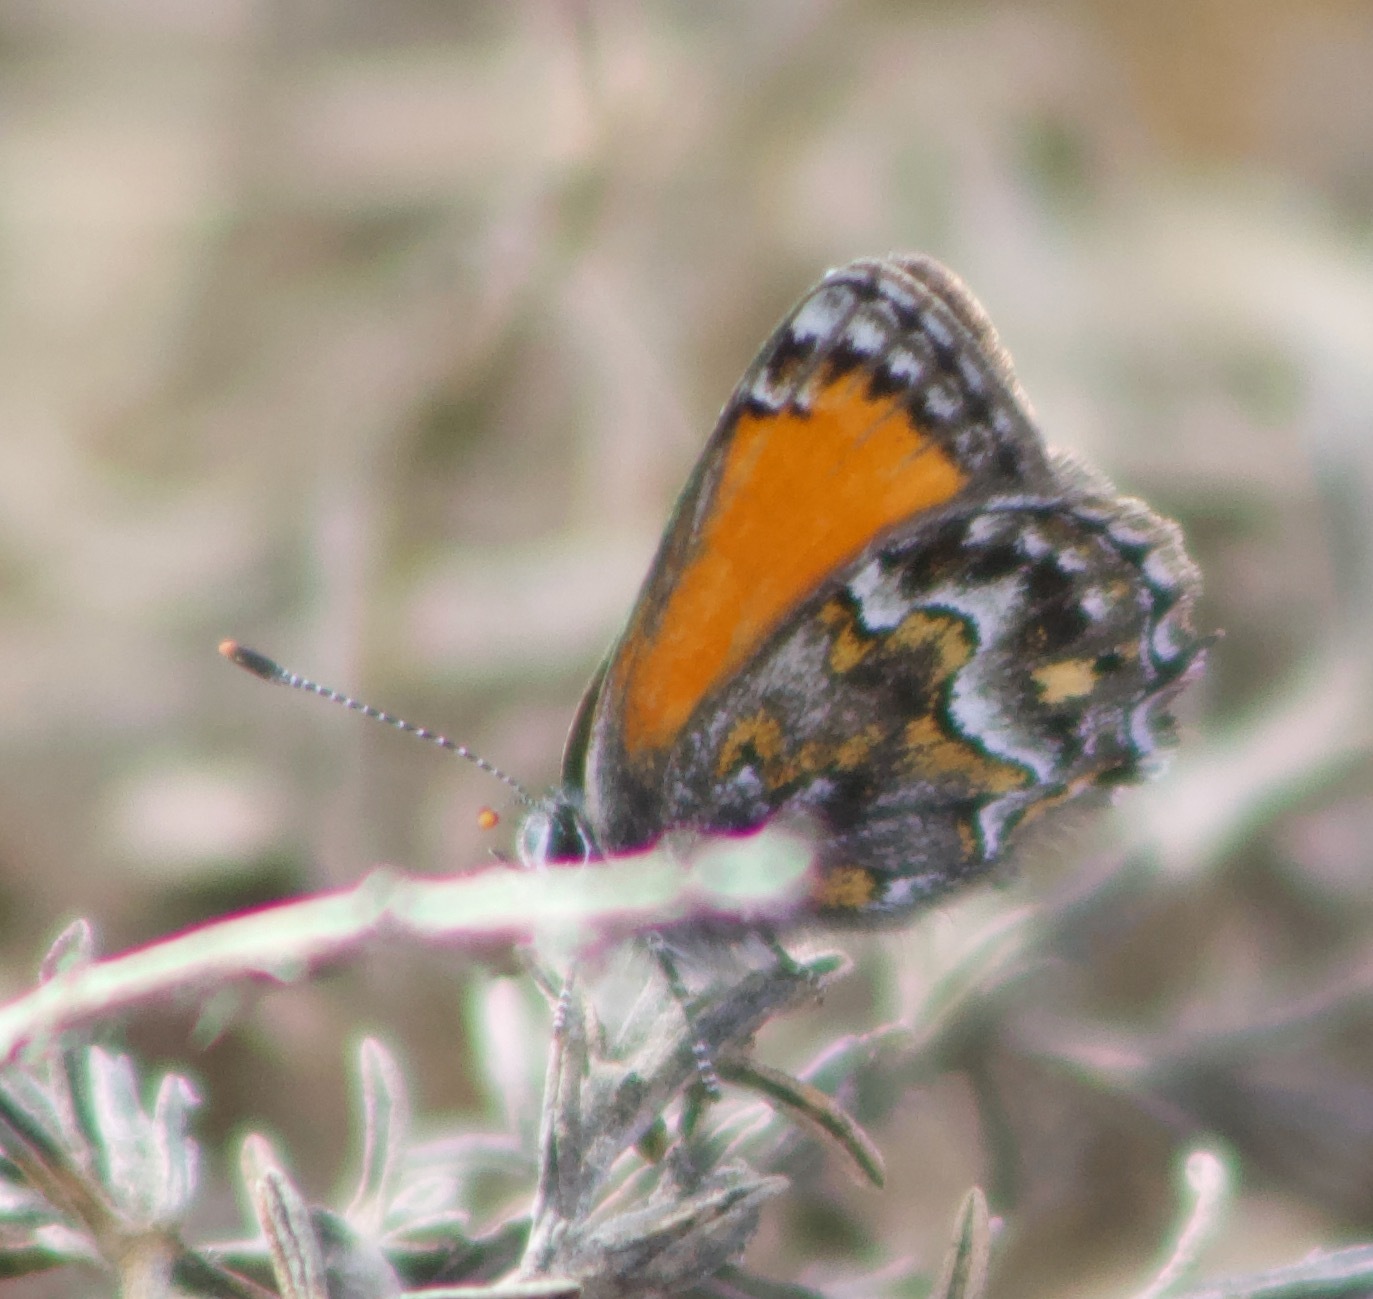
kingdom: Animalia
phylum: Arthropoda
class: Insecta
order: Lepidoptera
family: Lycaenidae
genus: Strymon
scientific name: Strymon
